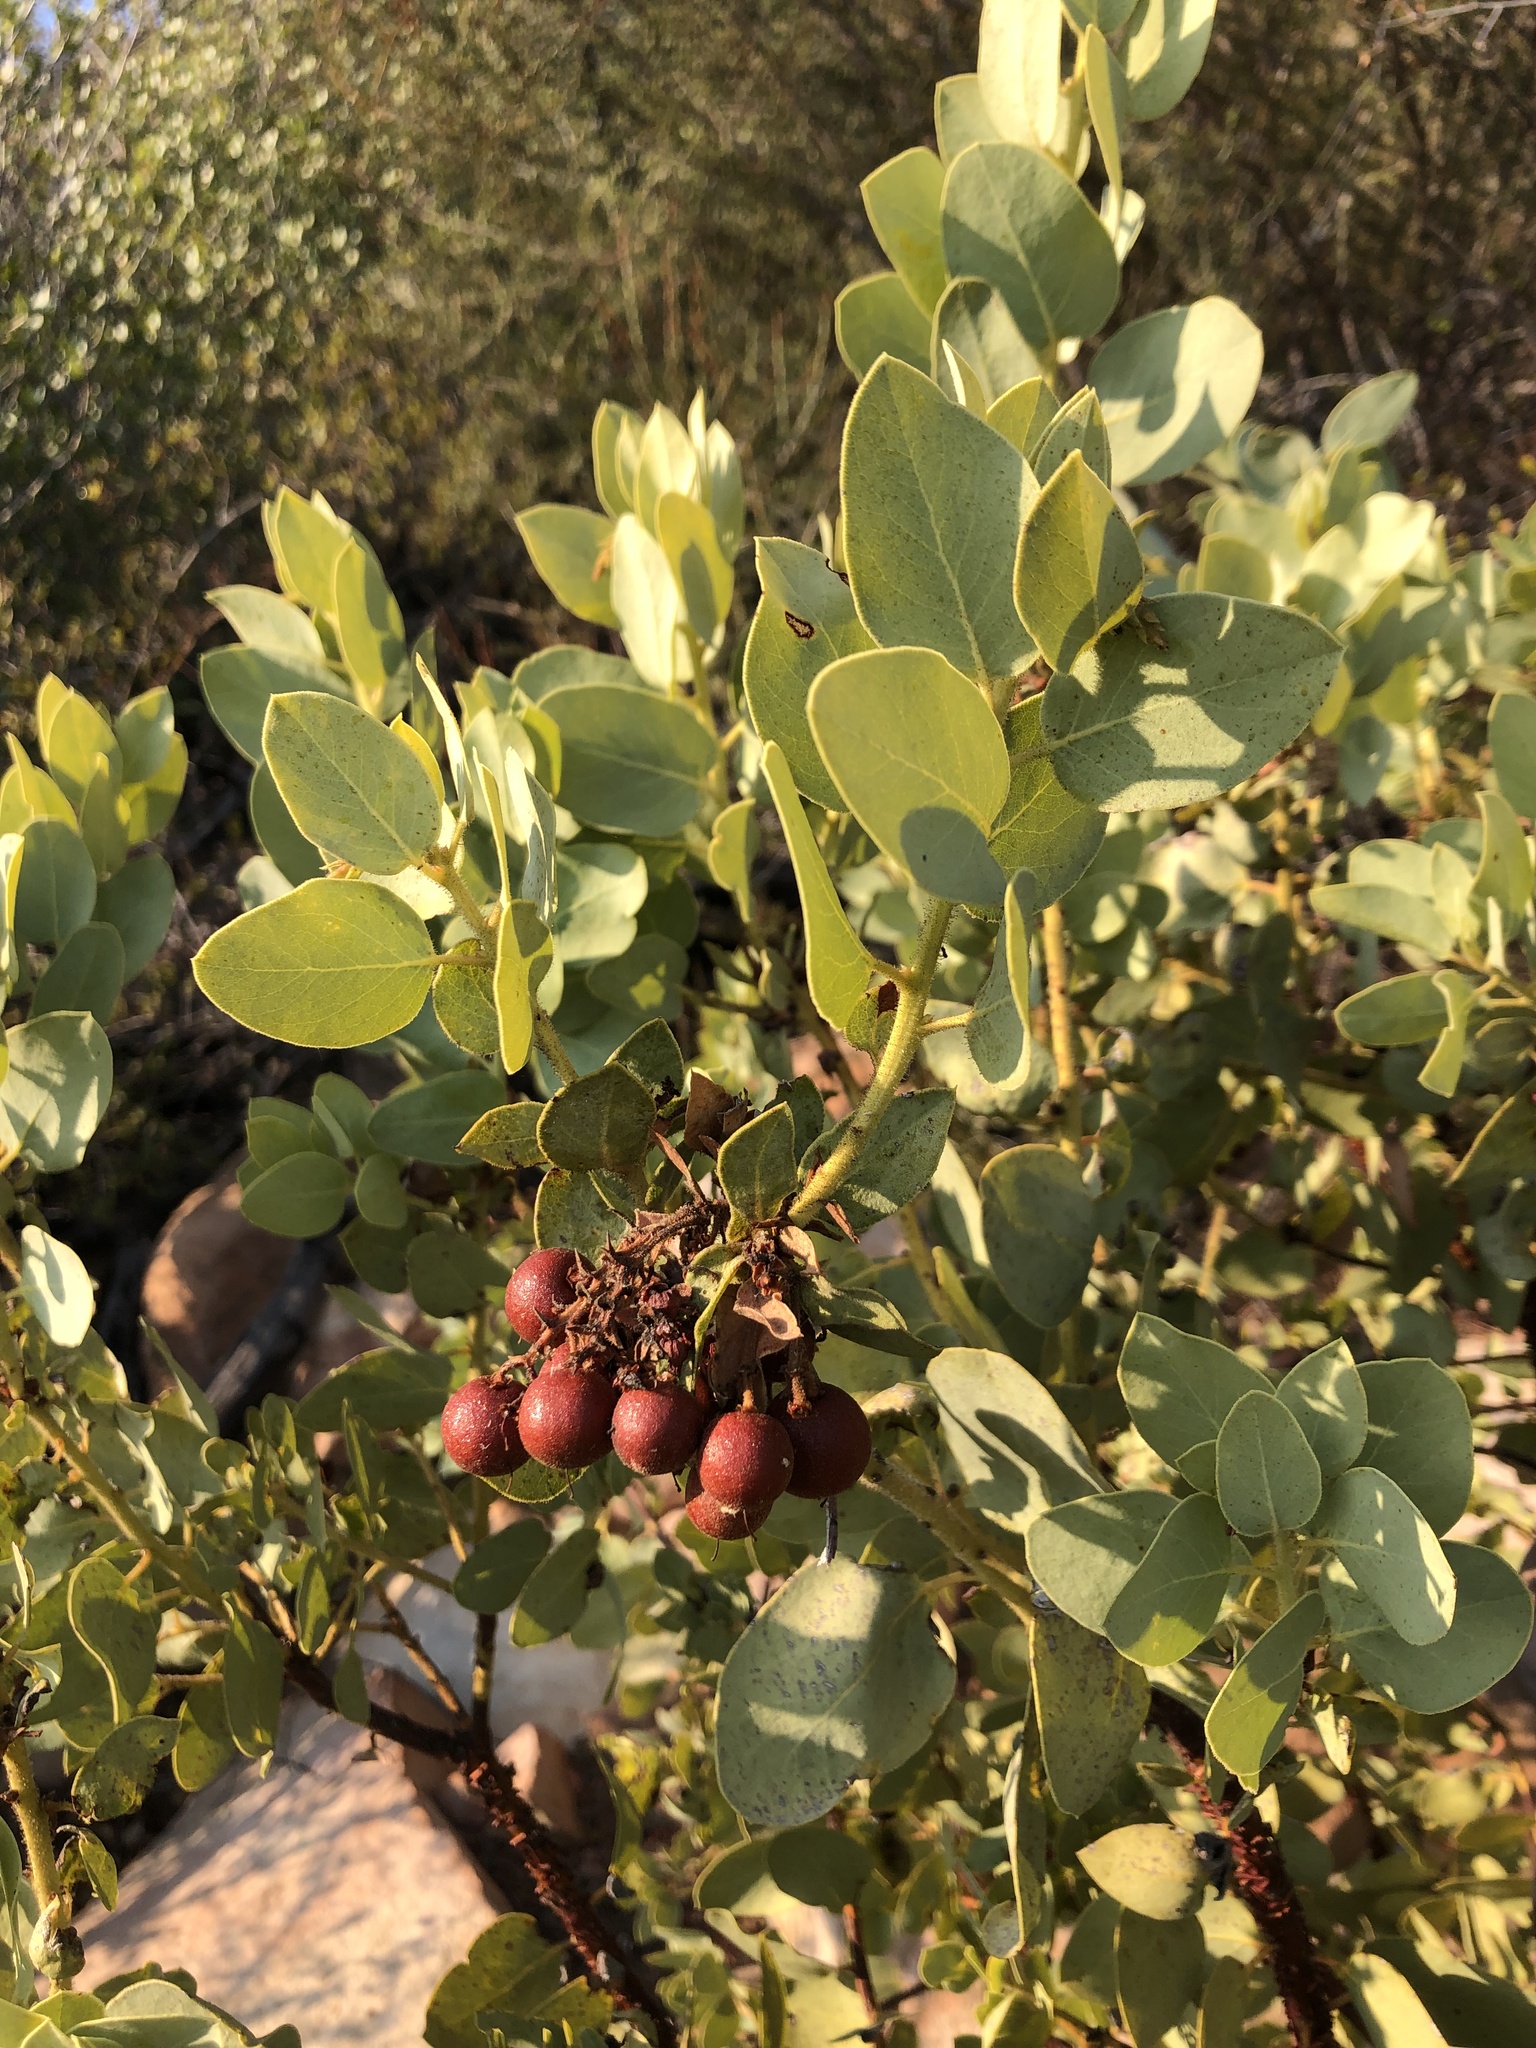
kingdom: Plantae
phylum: Tracheophyta
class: Magnoliopsida
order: Ericales
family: Ericaceae
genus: Arctostaphylos
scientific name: Arctostaphylos glauca
